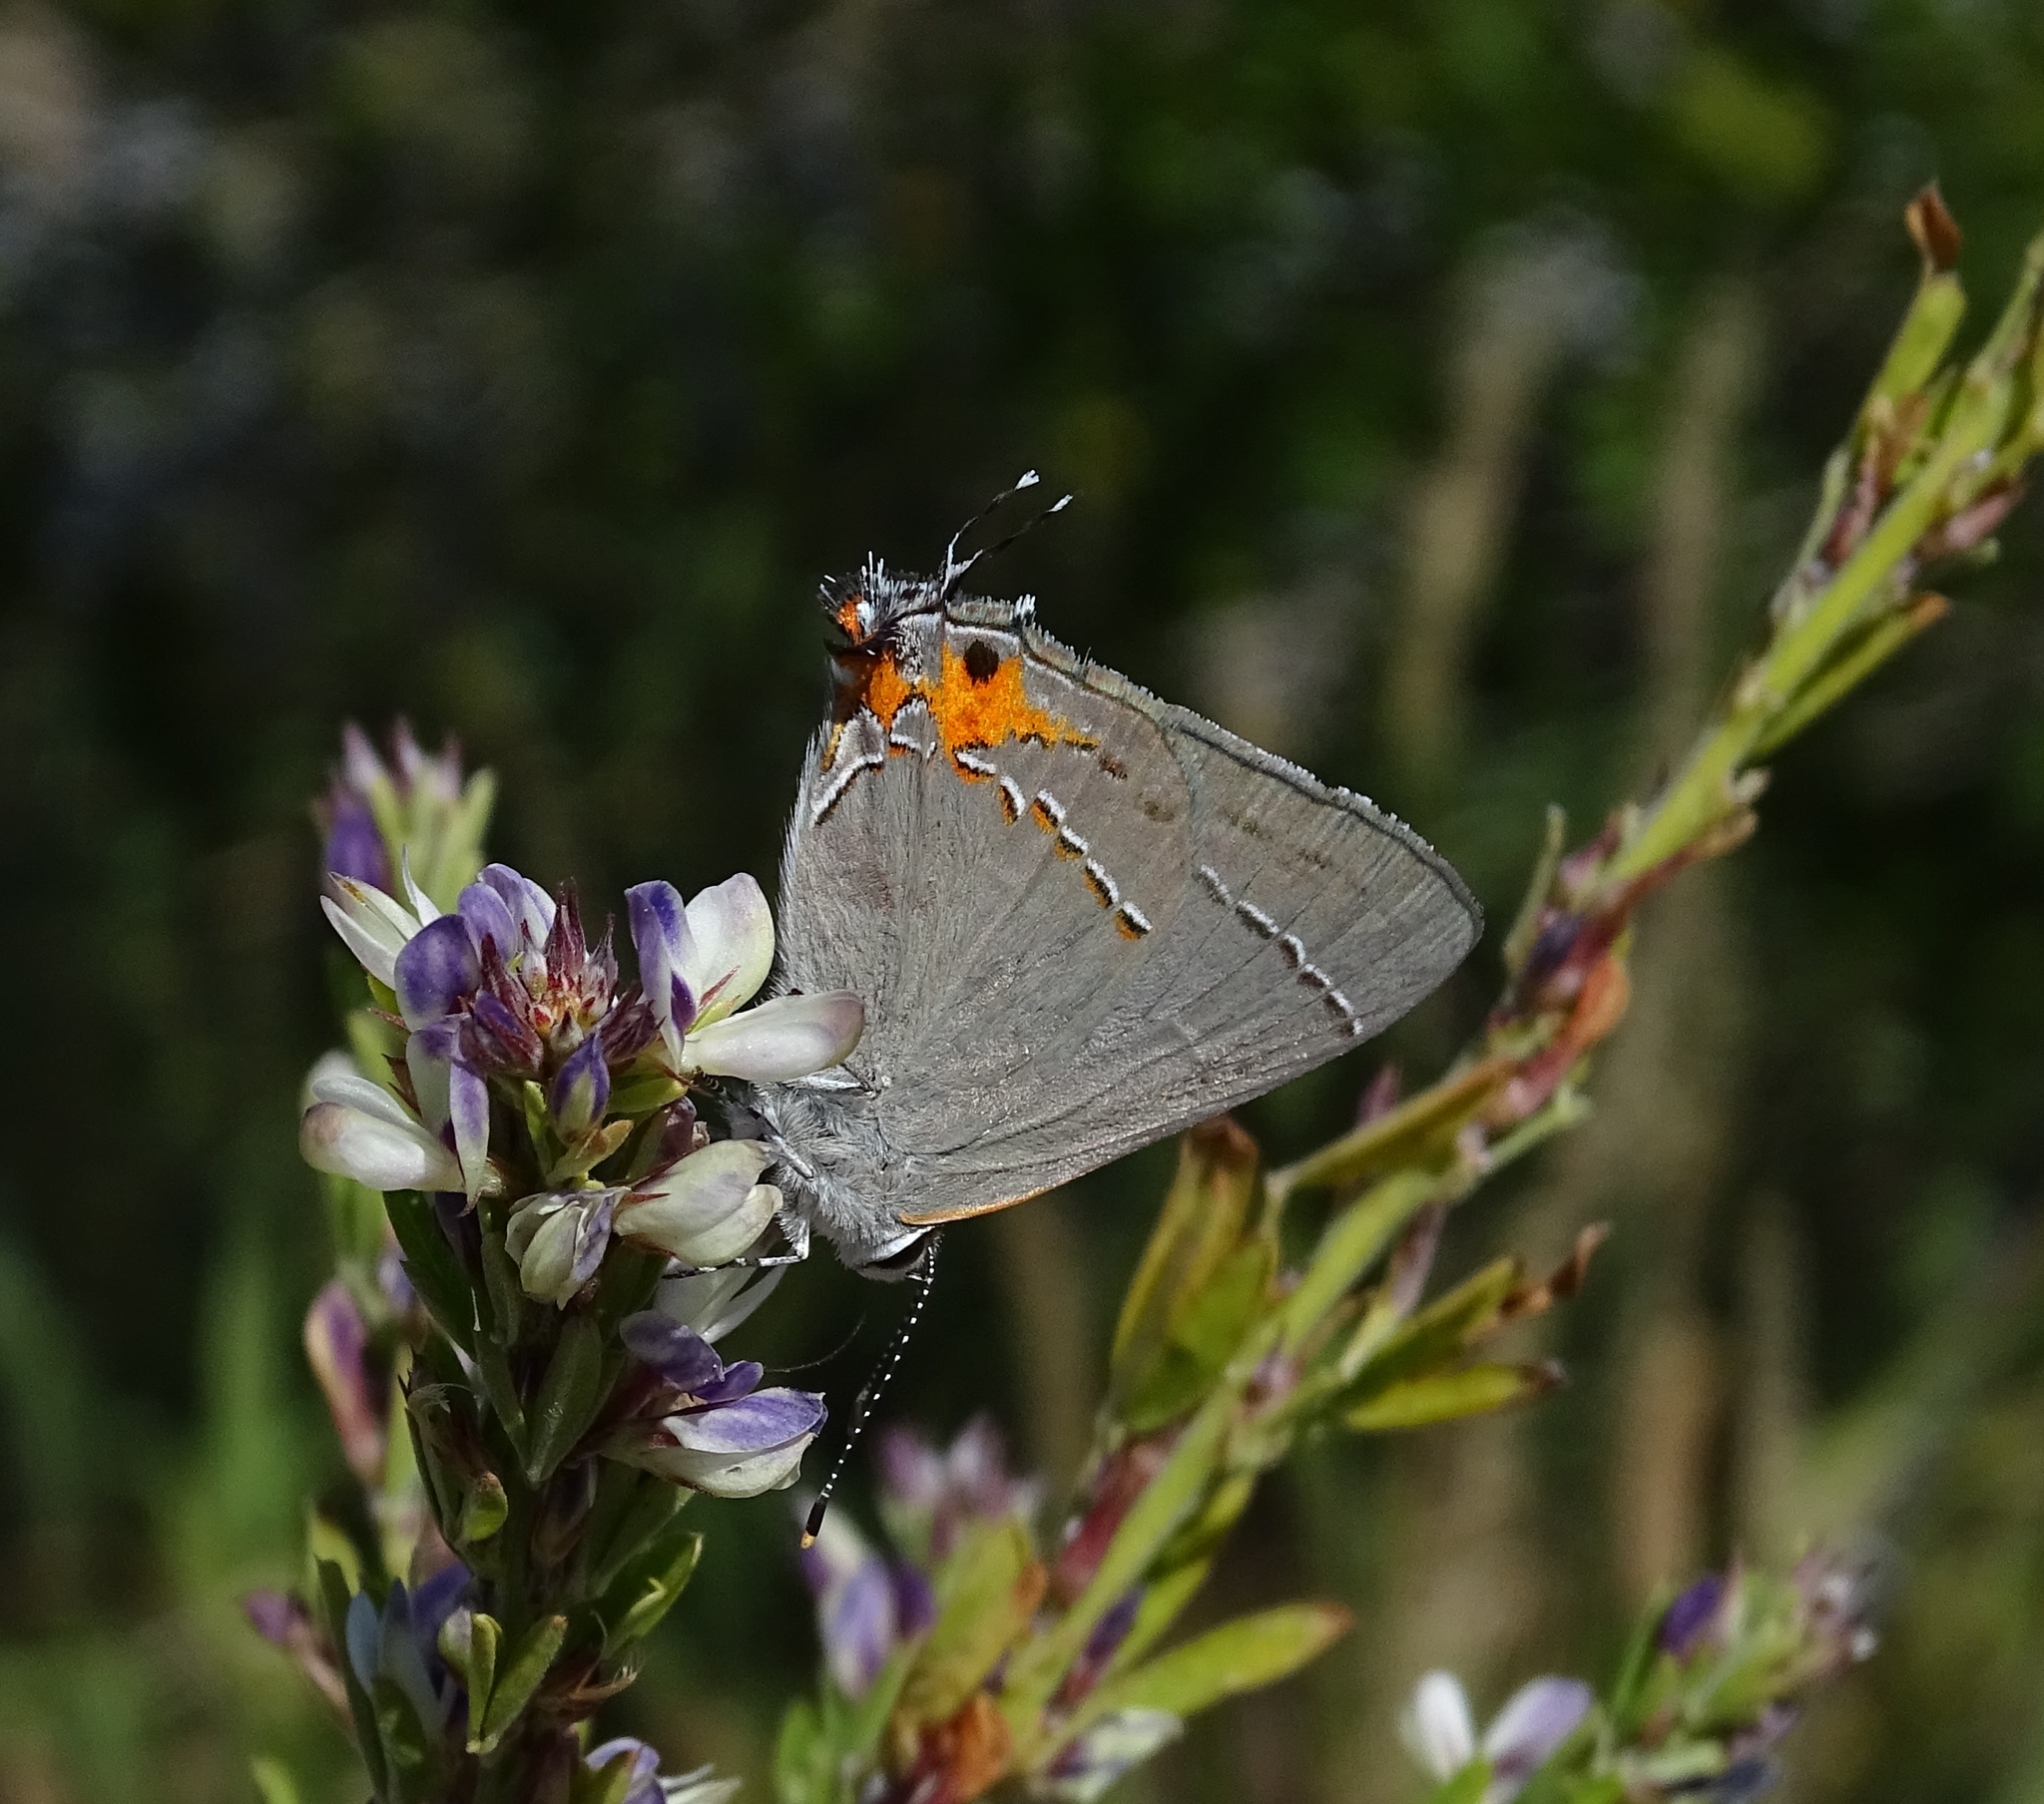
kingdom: Animalia
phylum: Arthropoda
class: Insecta
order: Lepidoptera
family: Lycaenidae
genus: Strymon
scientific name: Strymon melinus
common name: Gray hairstreak
